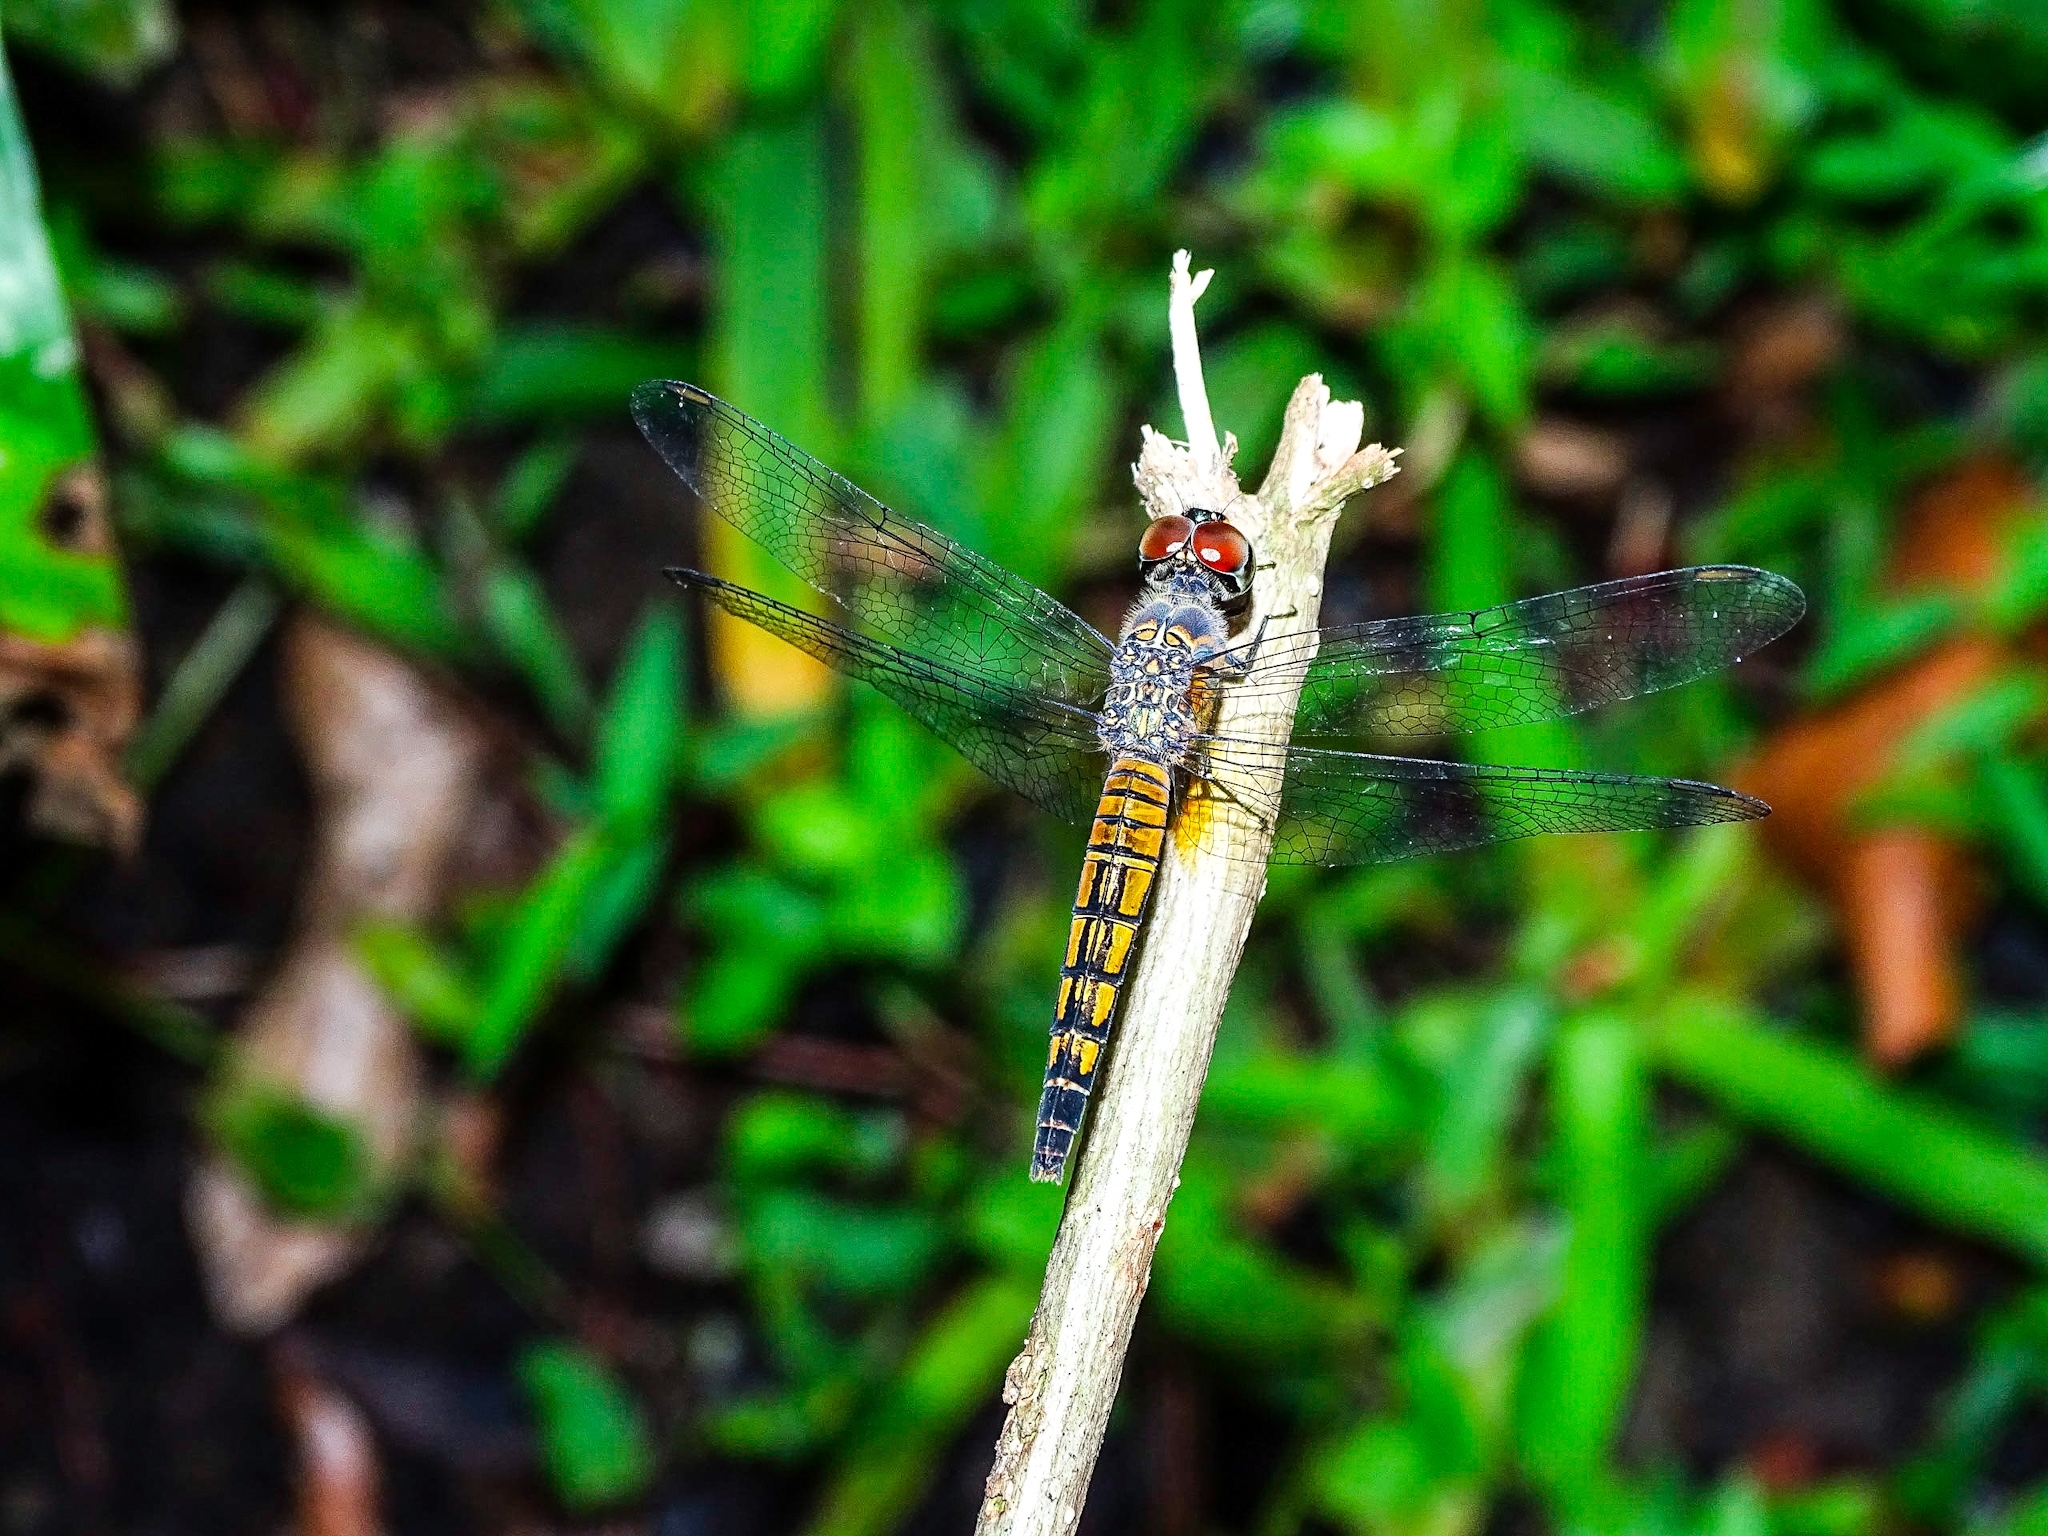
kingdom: Animalia
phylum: Arthropoda
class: Insecta
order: Odonata
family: Libellulidae
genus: Brachydiplax
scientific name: Brachydiplax chalybea
